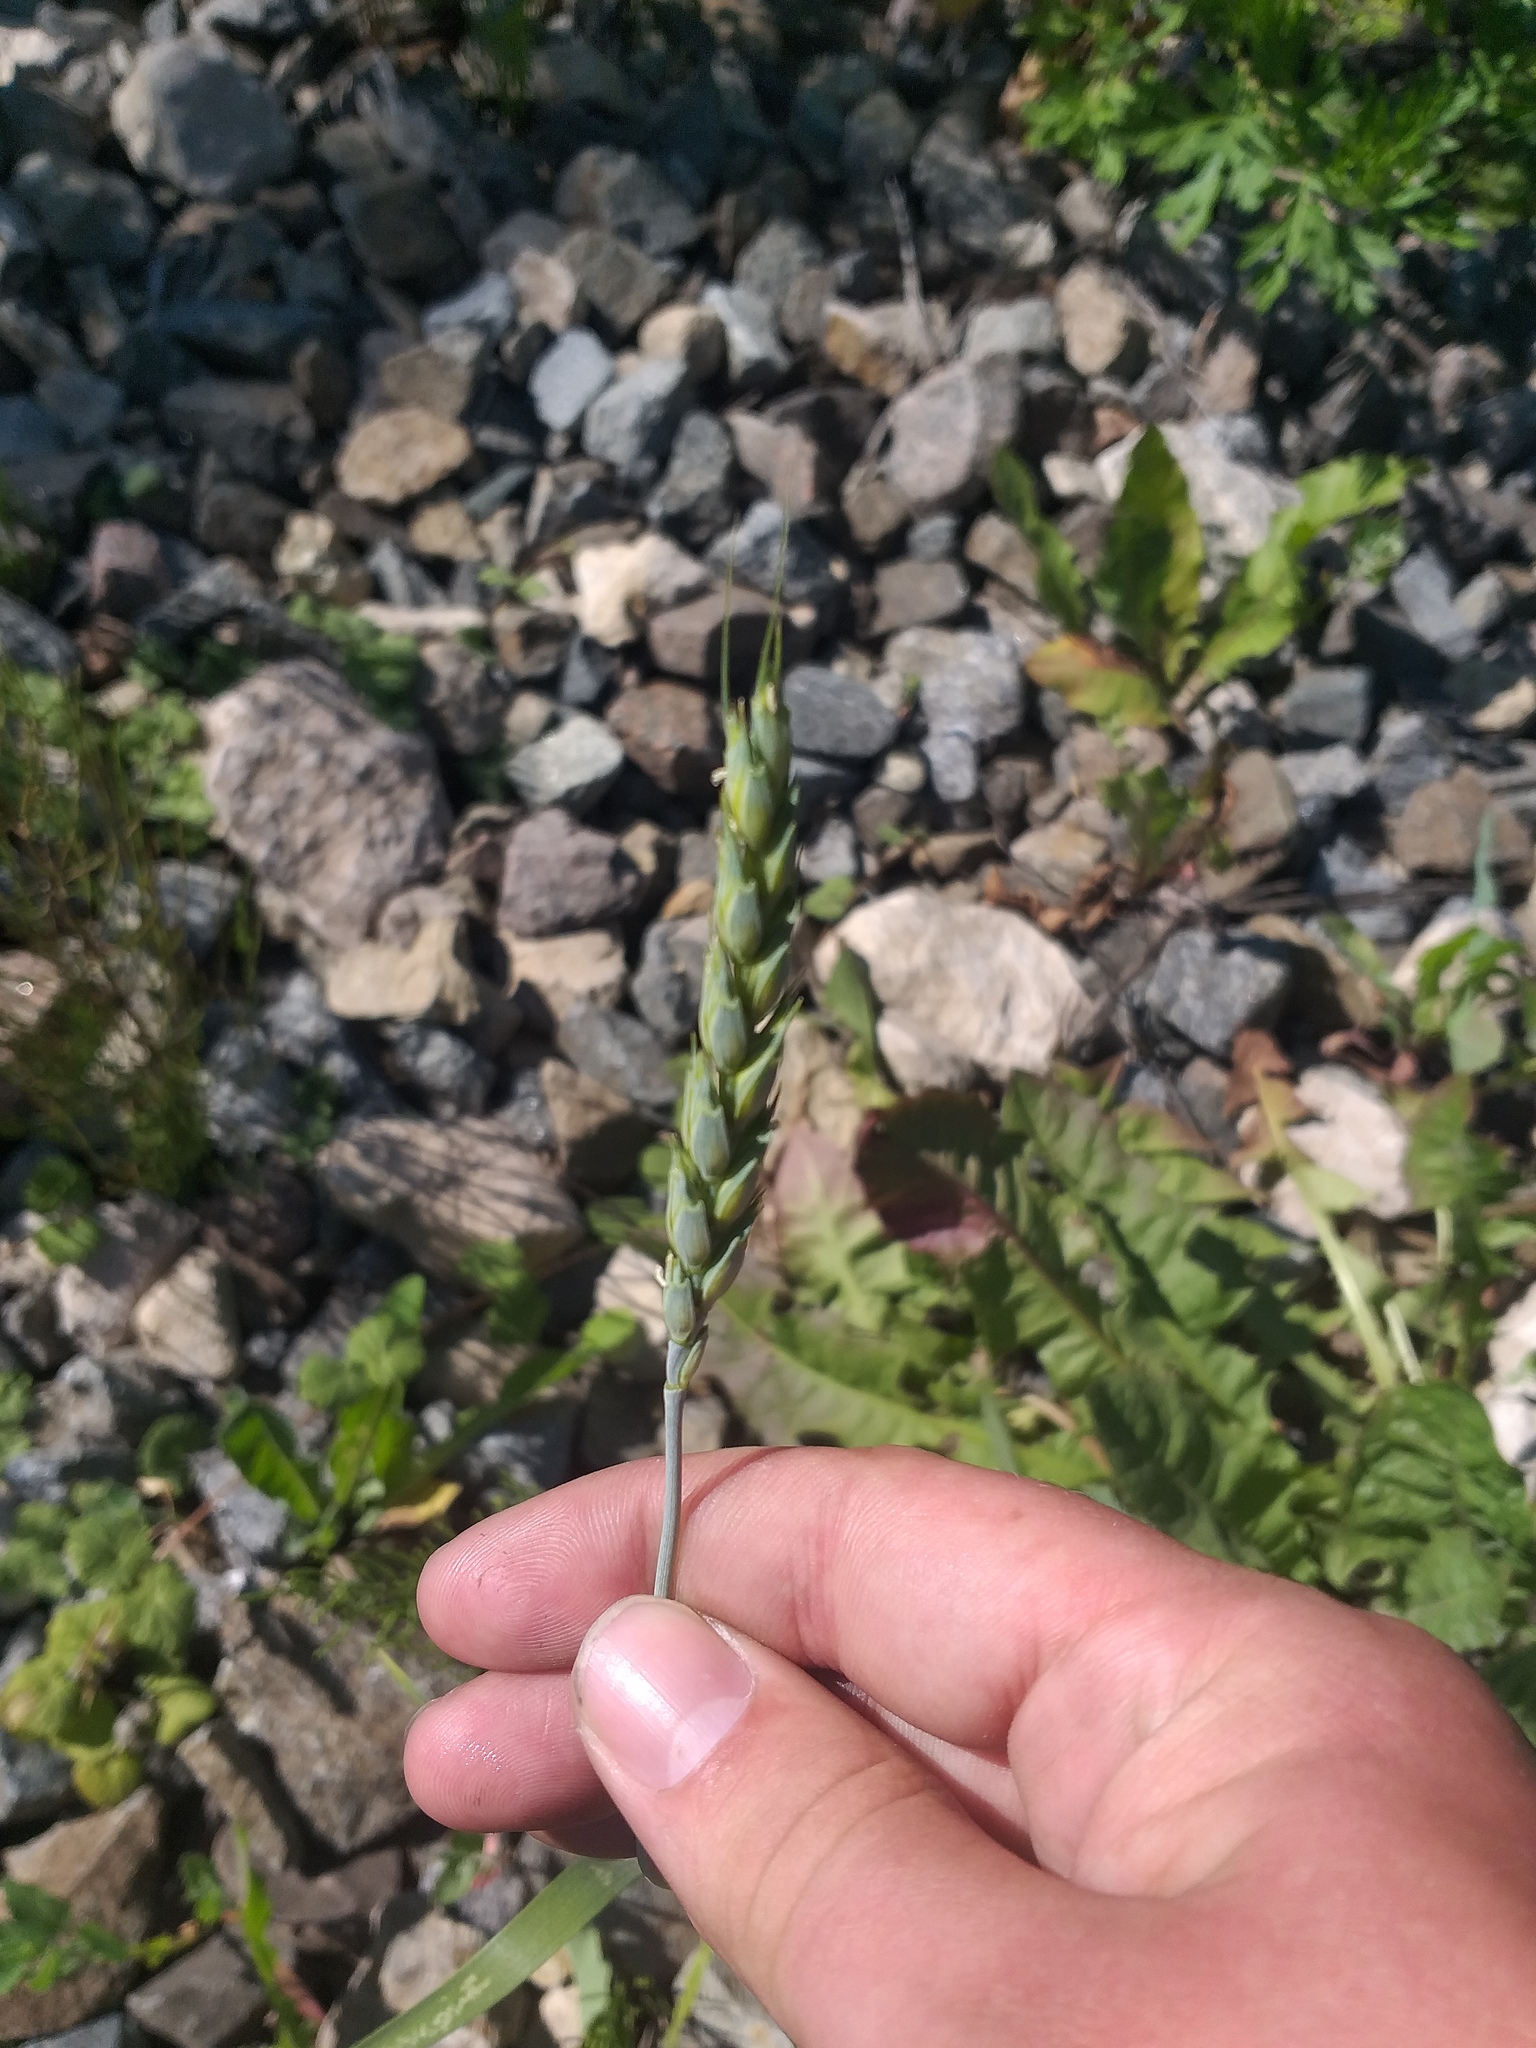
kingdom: Plantae
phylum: Tracheophyta
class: Liliopsida
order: Poales
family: Poaceae
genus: Triticum
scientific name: Triticum aestivum
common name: Common wheat
